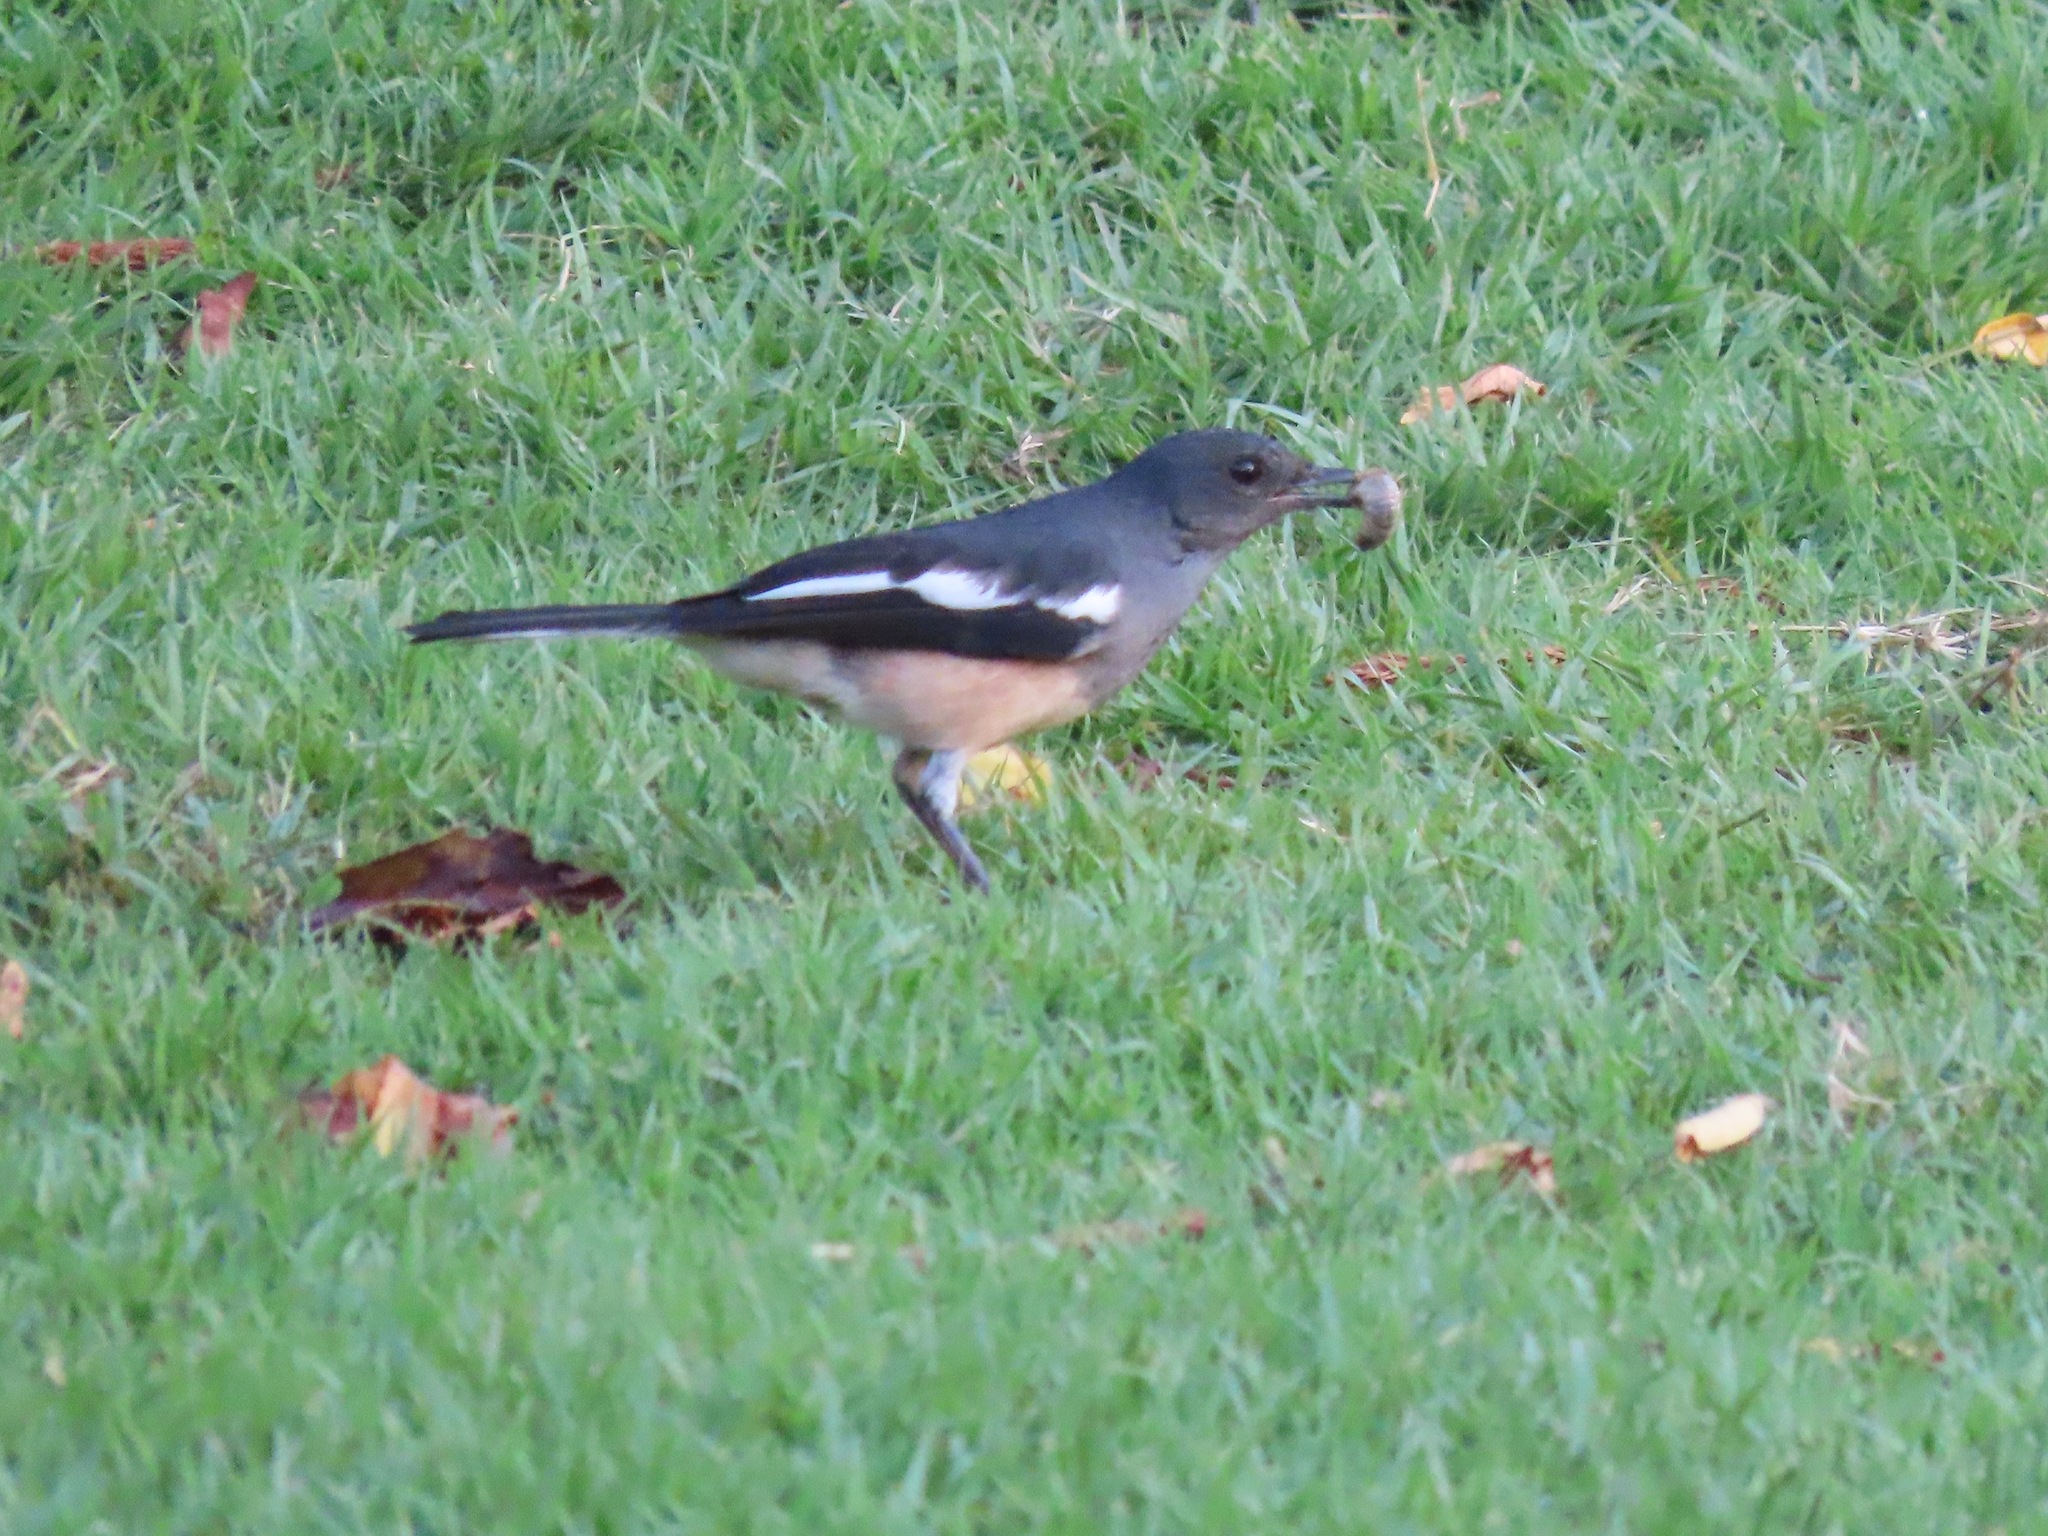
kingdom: Animalia
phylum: Chordata
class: Aves
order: Passeriformes
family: Muscicapidae
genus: Copsychus
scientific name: Copsychus saularis
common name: Oriental magpie-robin
